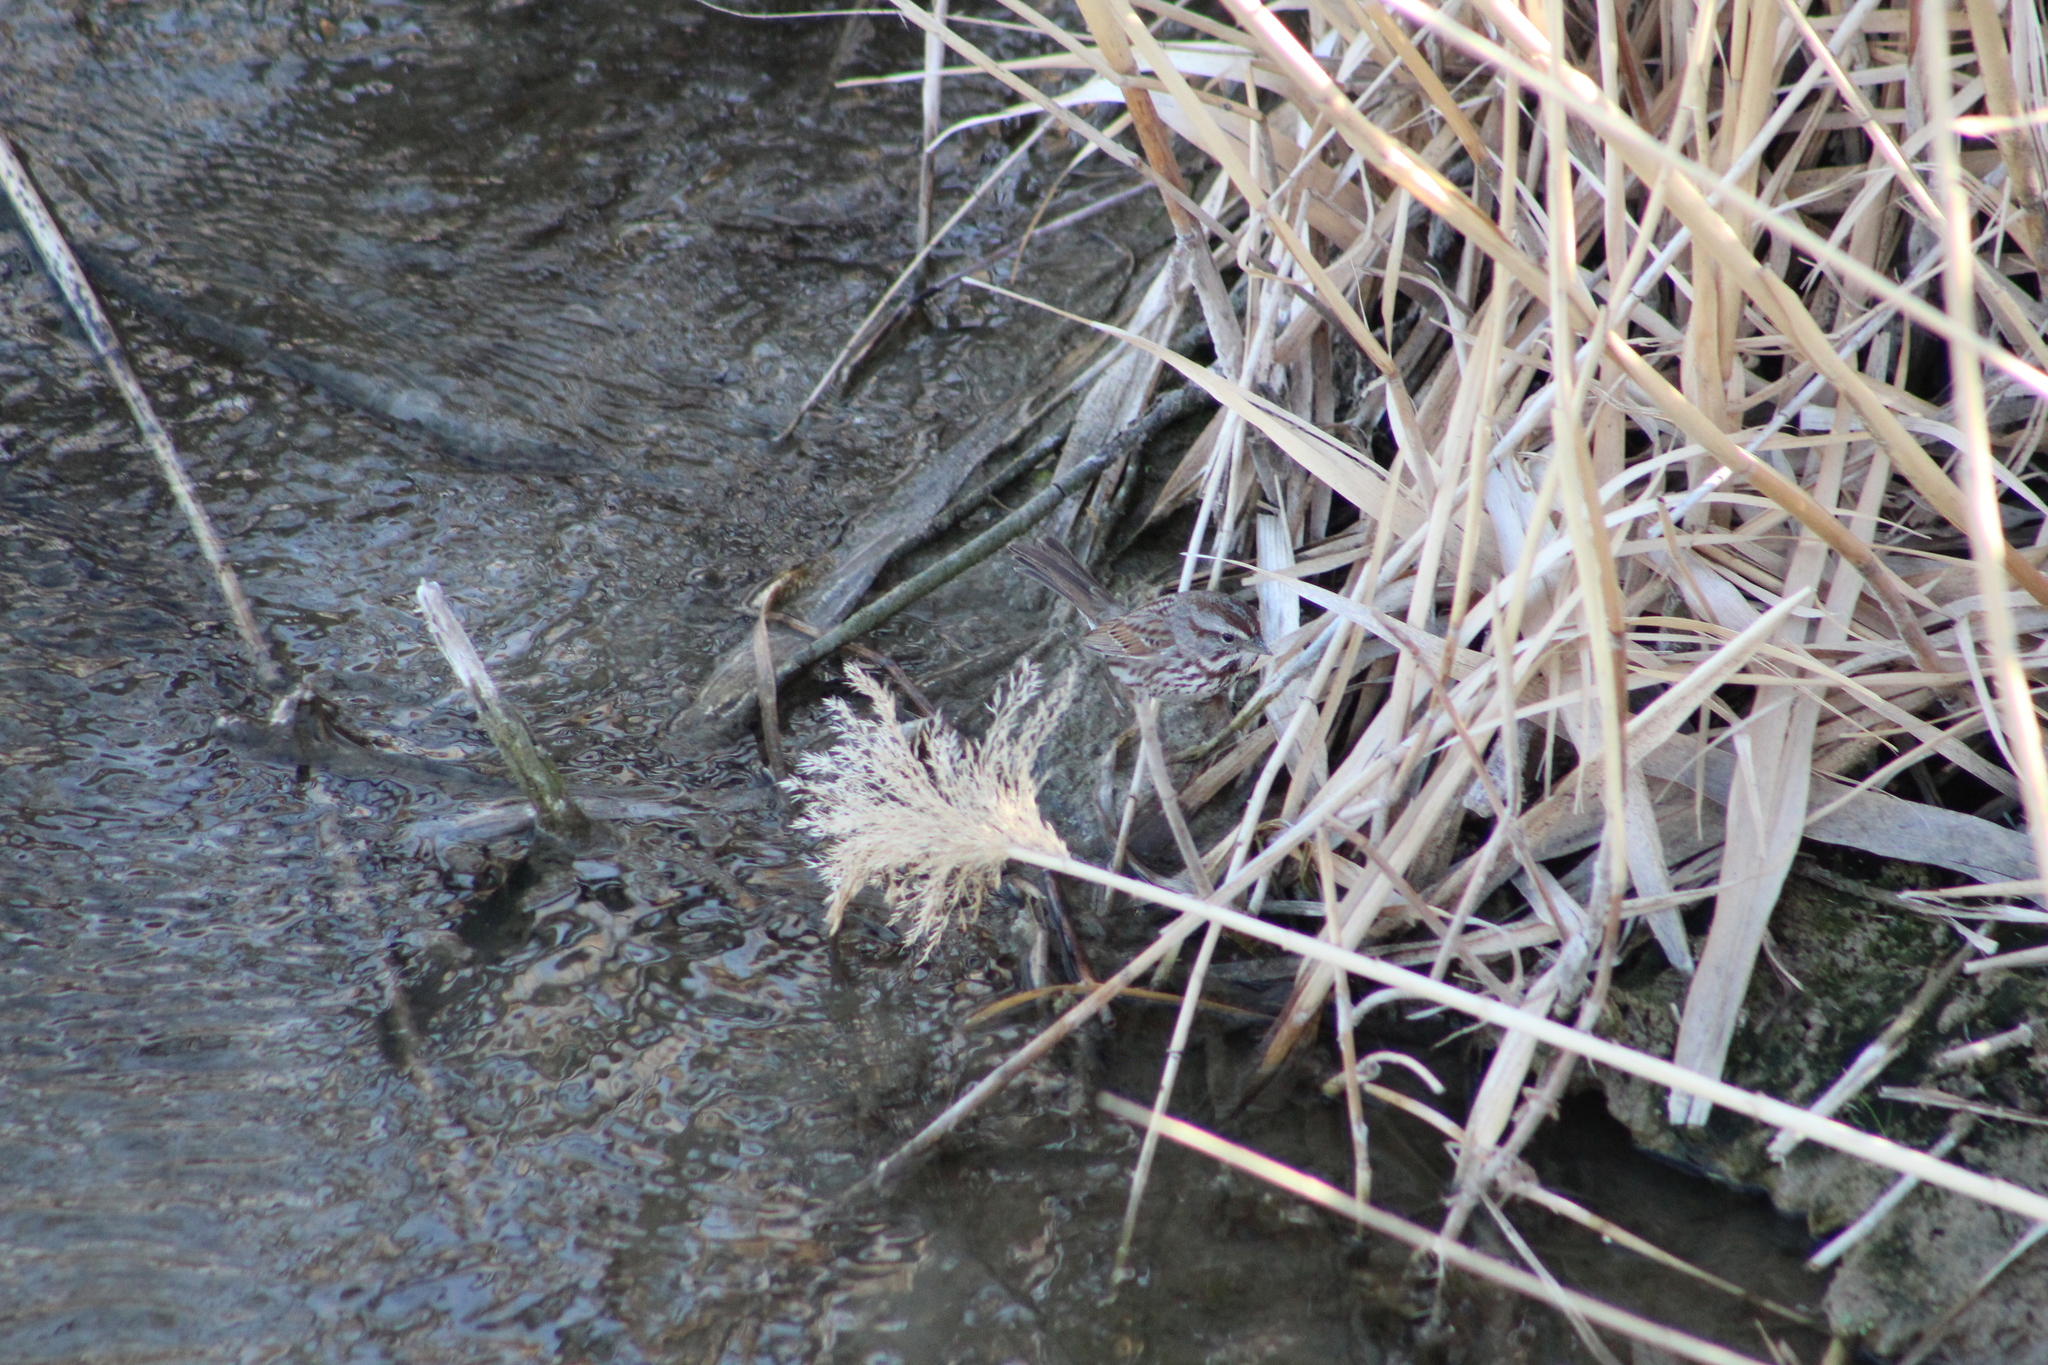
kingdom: Animalia
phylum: Chordata
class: Aves
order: Passeriformes
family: Passerellidae
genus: Melospiza
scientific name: Melospiza melodia
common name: Song sparrow
